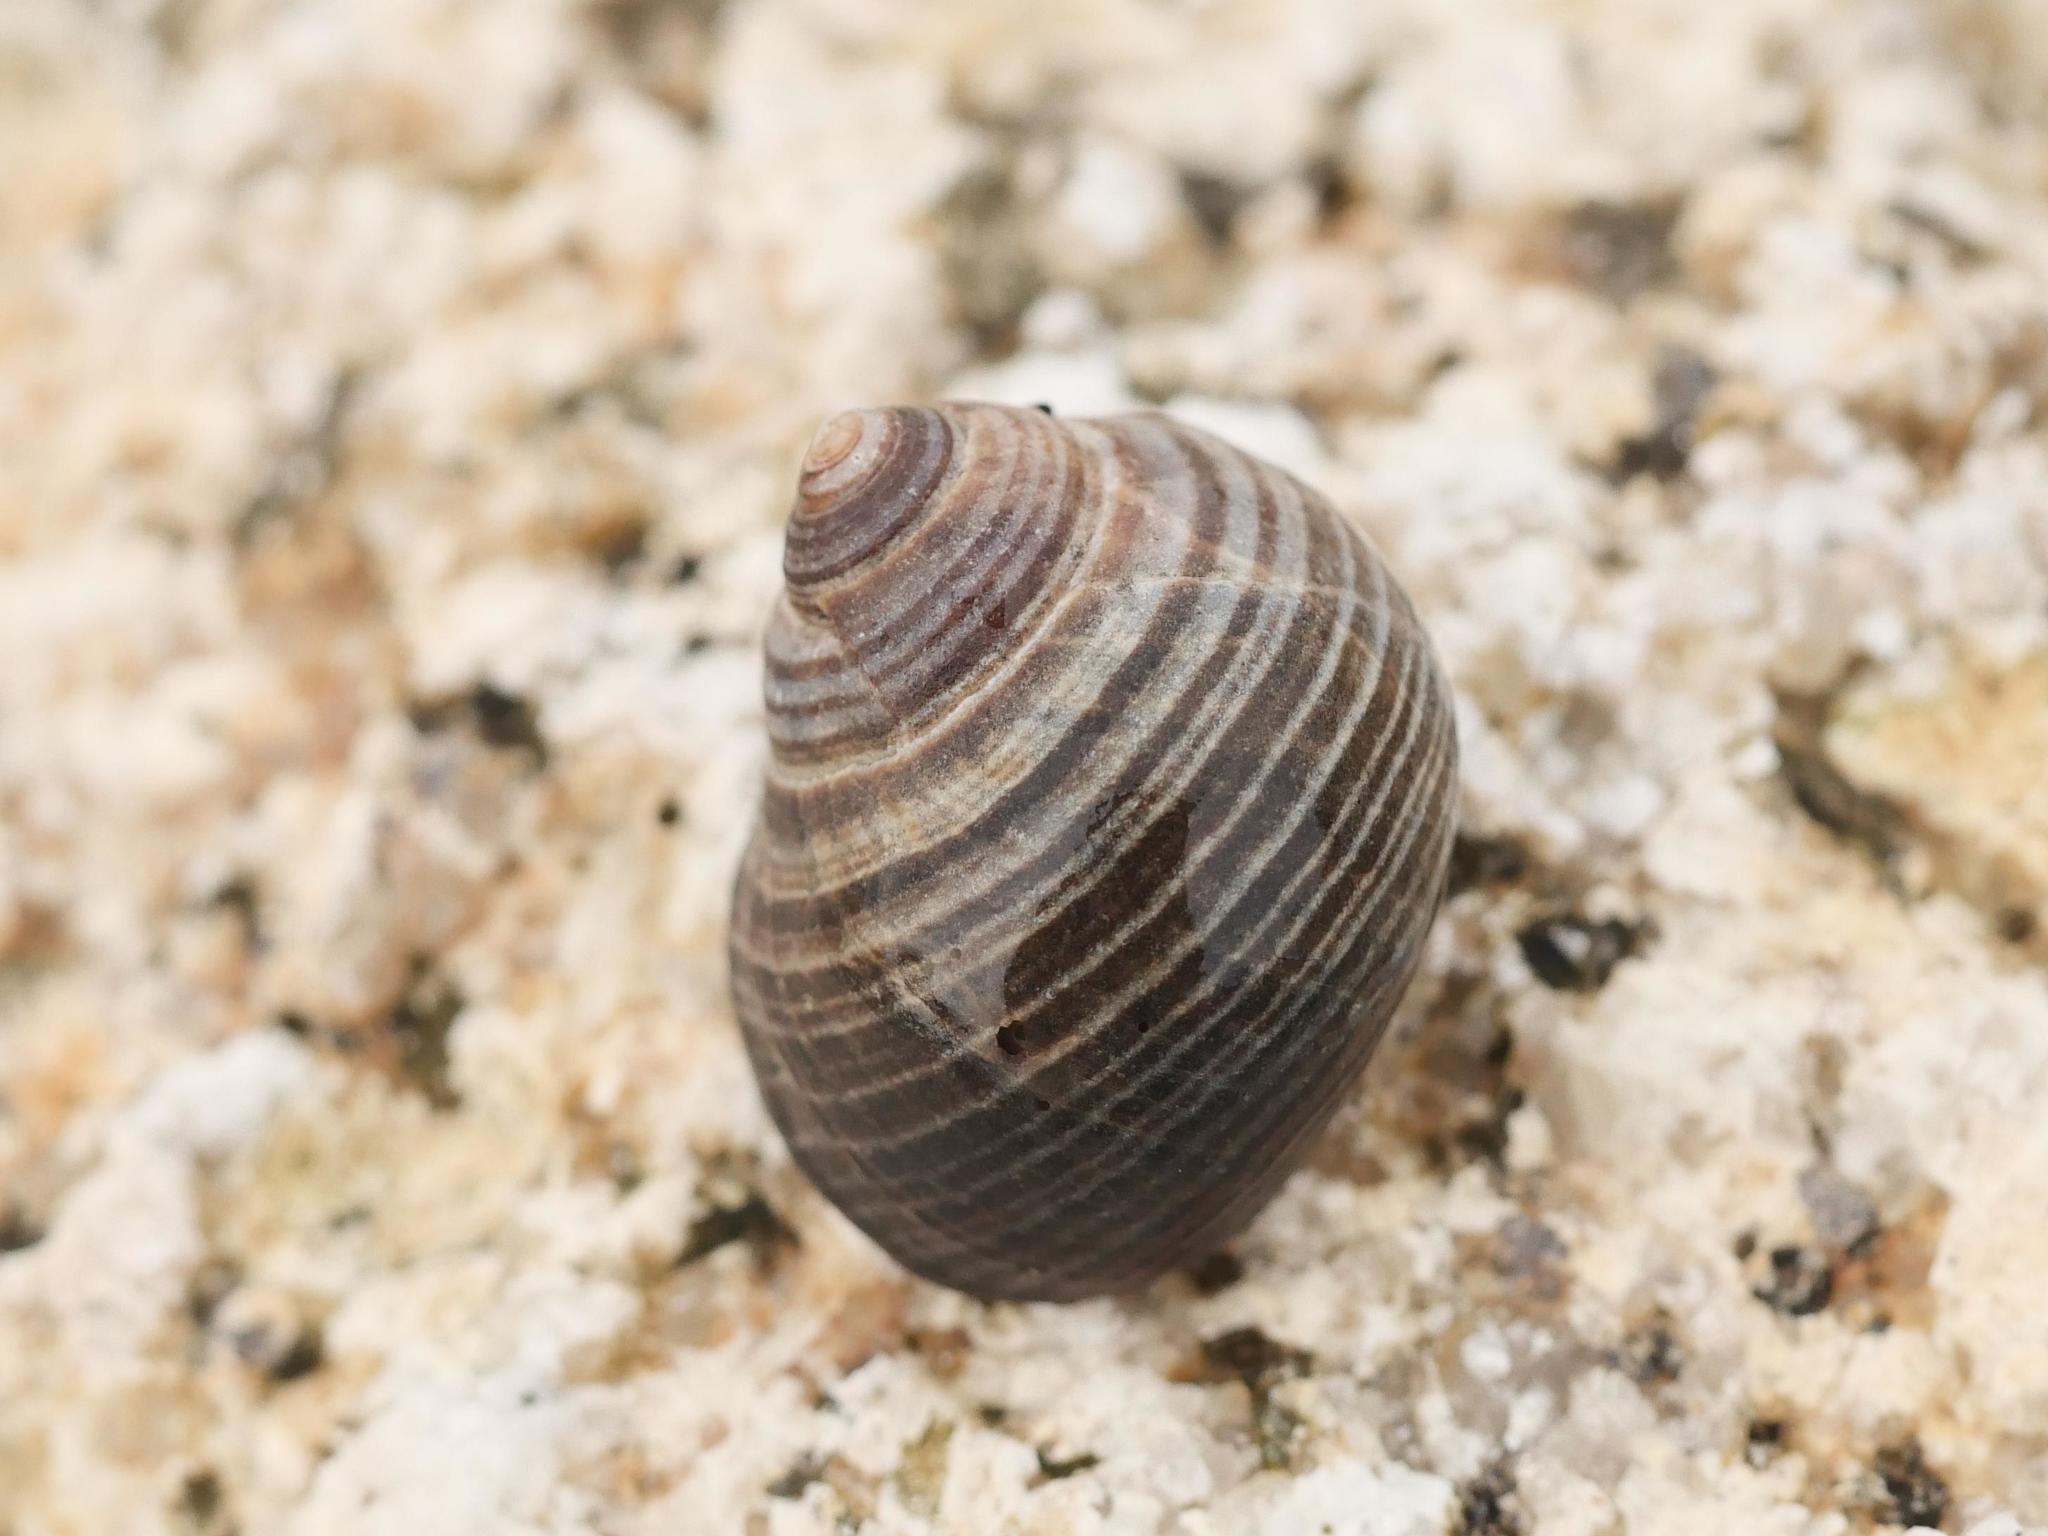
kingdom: Animalia
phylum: Mollusca
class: Gastropoda
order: Littorinimorpha
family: Littorinidae
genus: Littorina
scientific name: Littorina littorea
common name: Common periwinkle
